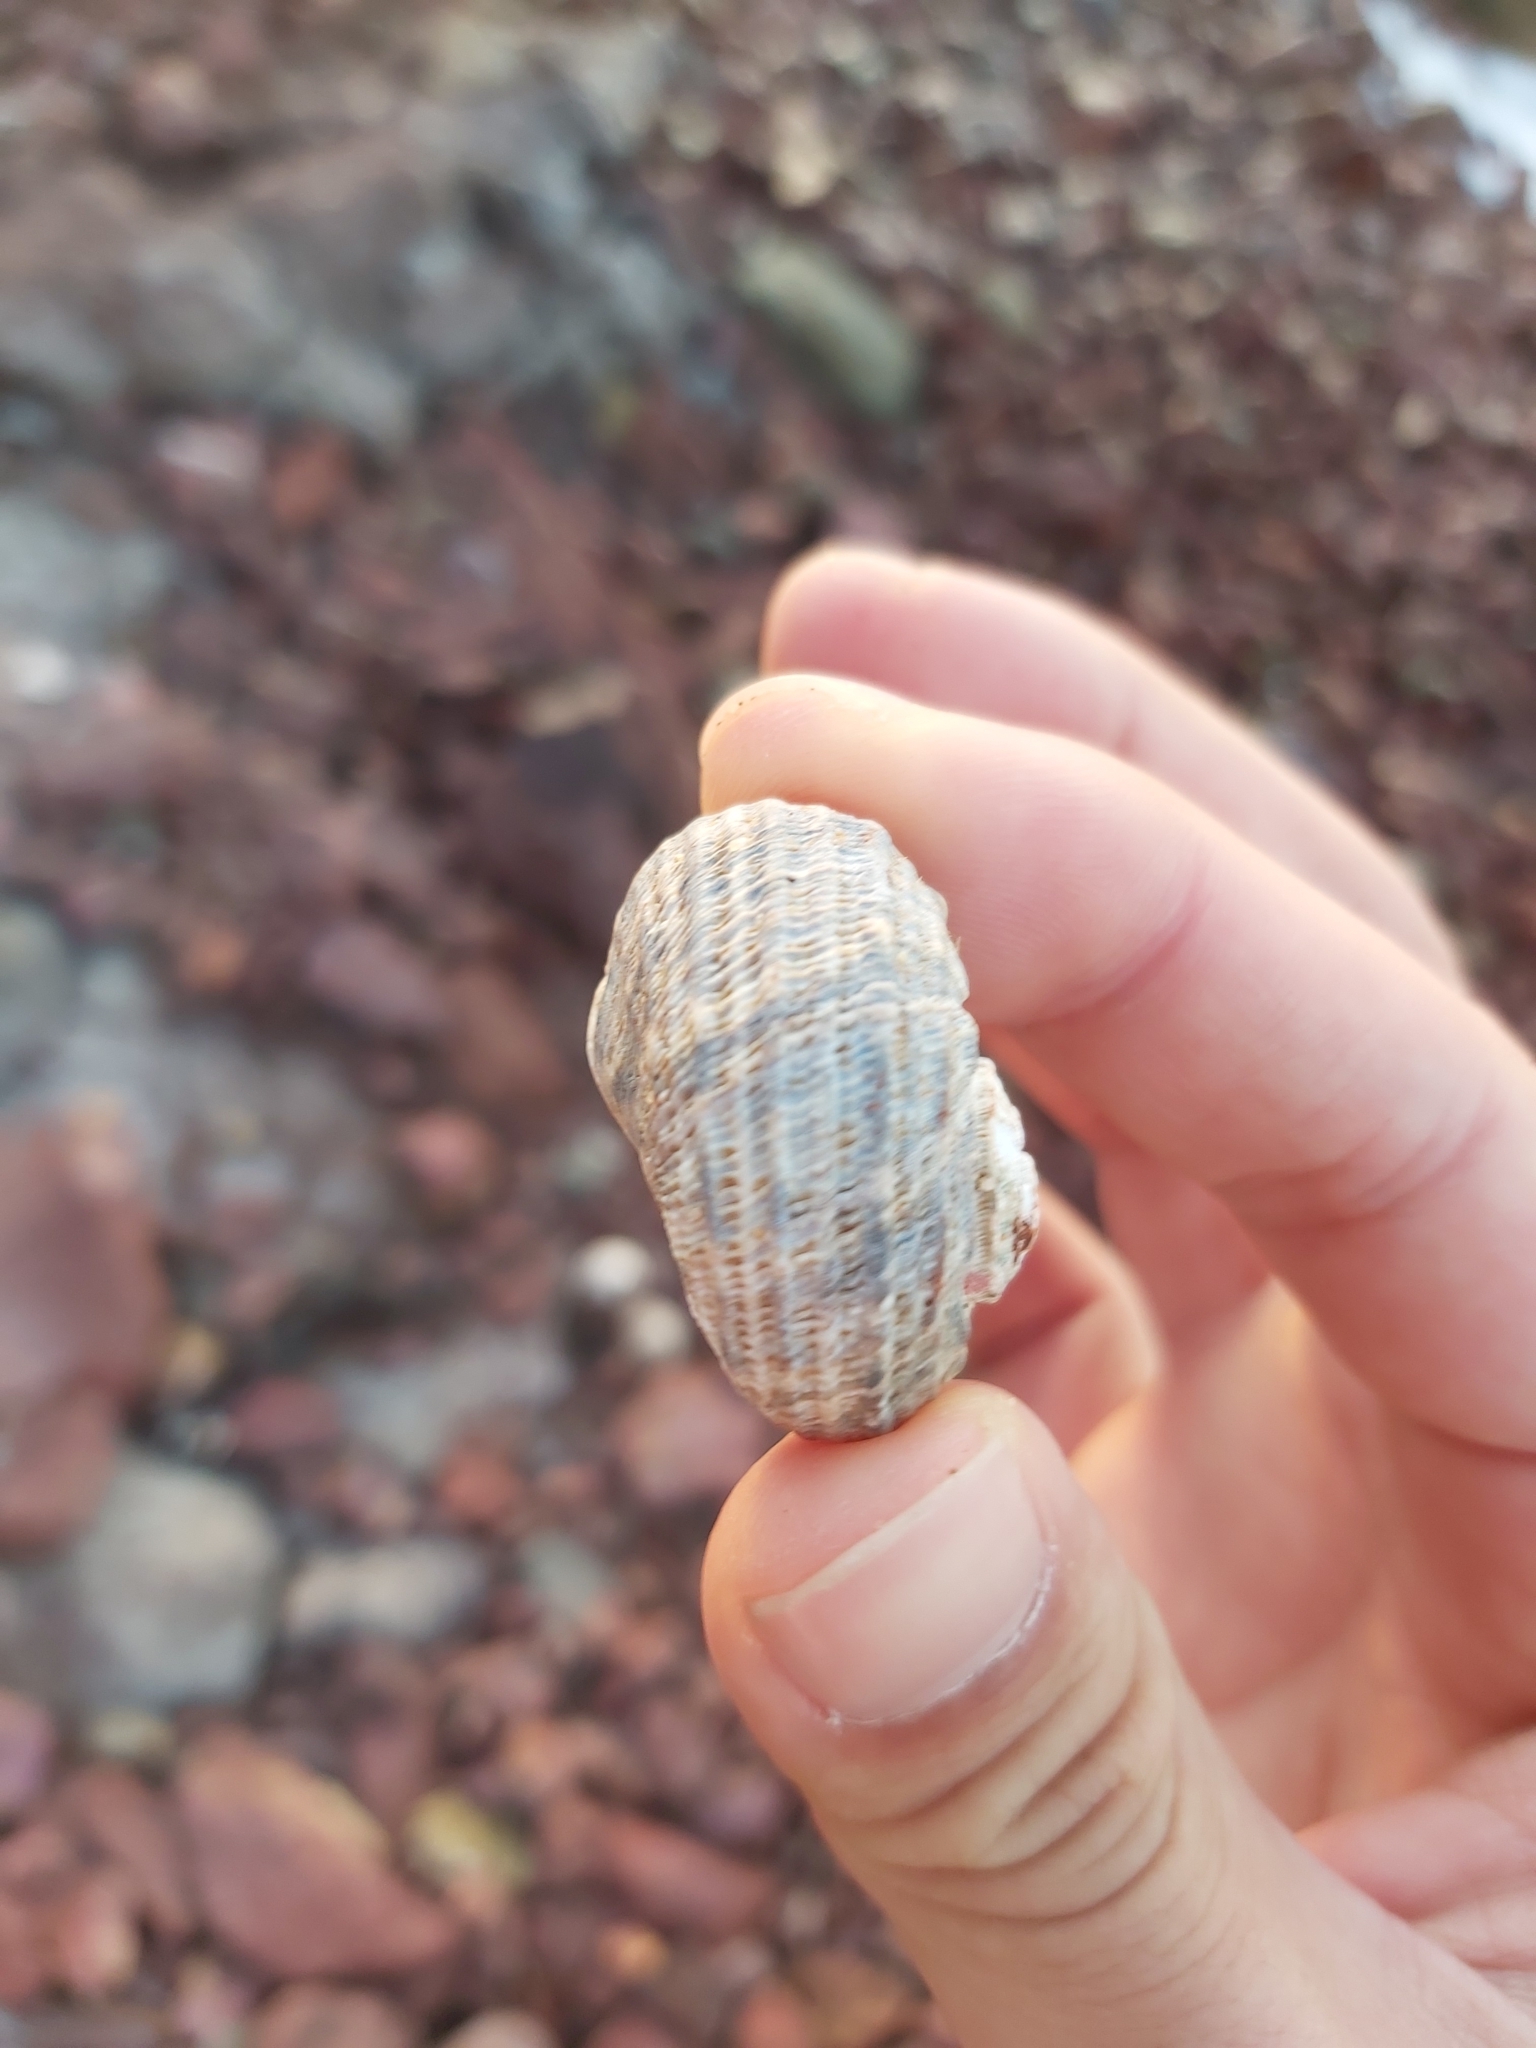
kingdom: Animalia
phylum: Mollusca
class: Gastropoda
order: Trochida
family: Turbinidae
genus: Lunella
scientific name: Lunella torquata
